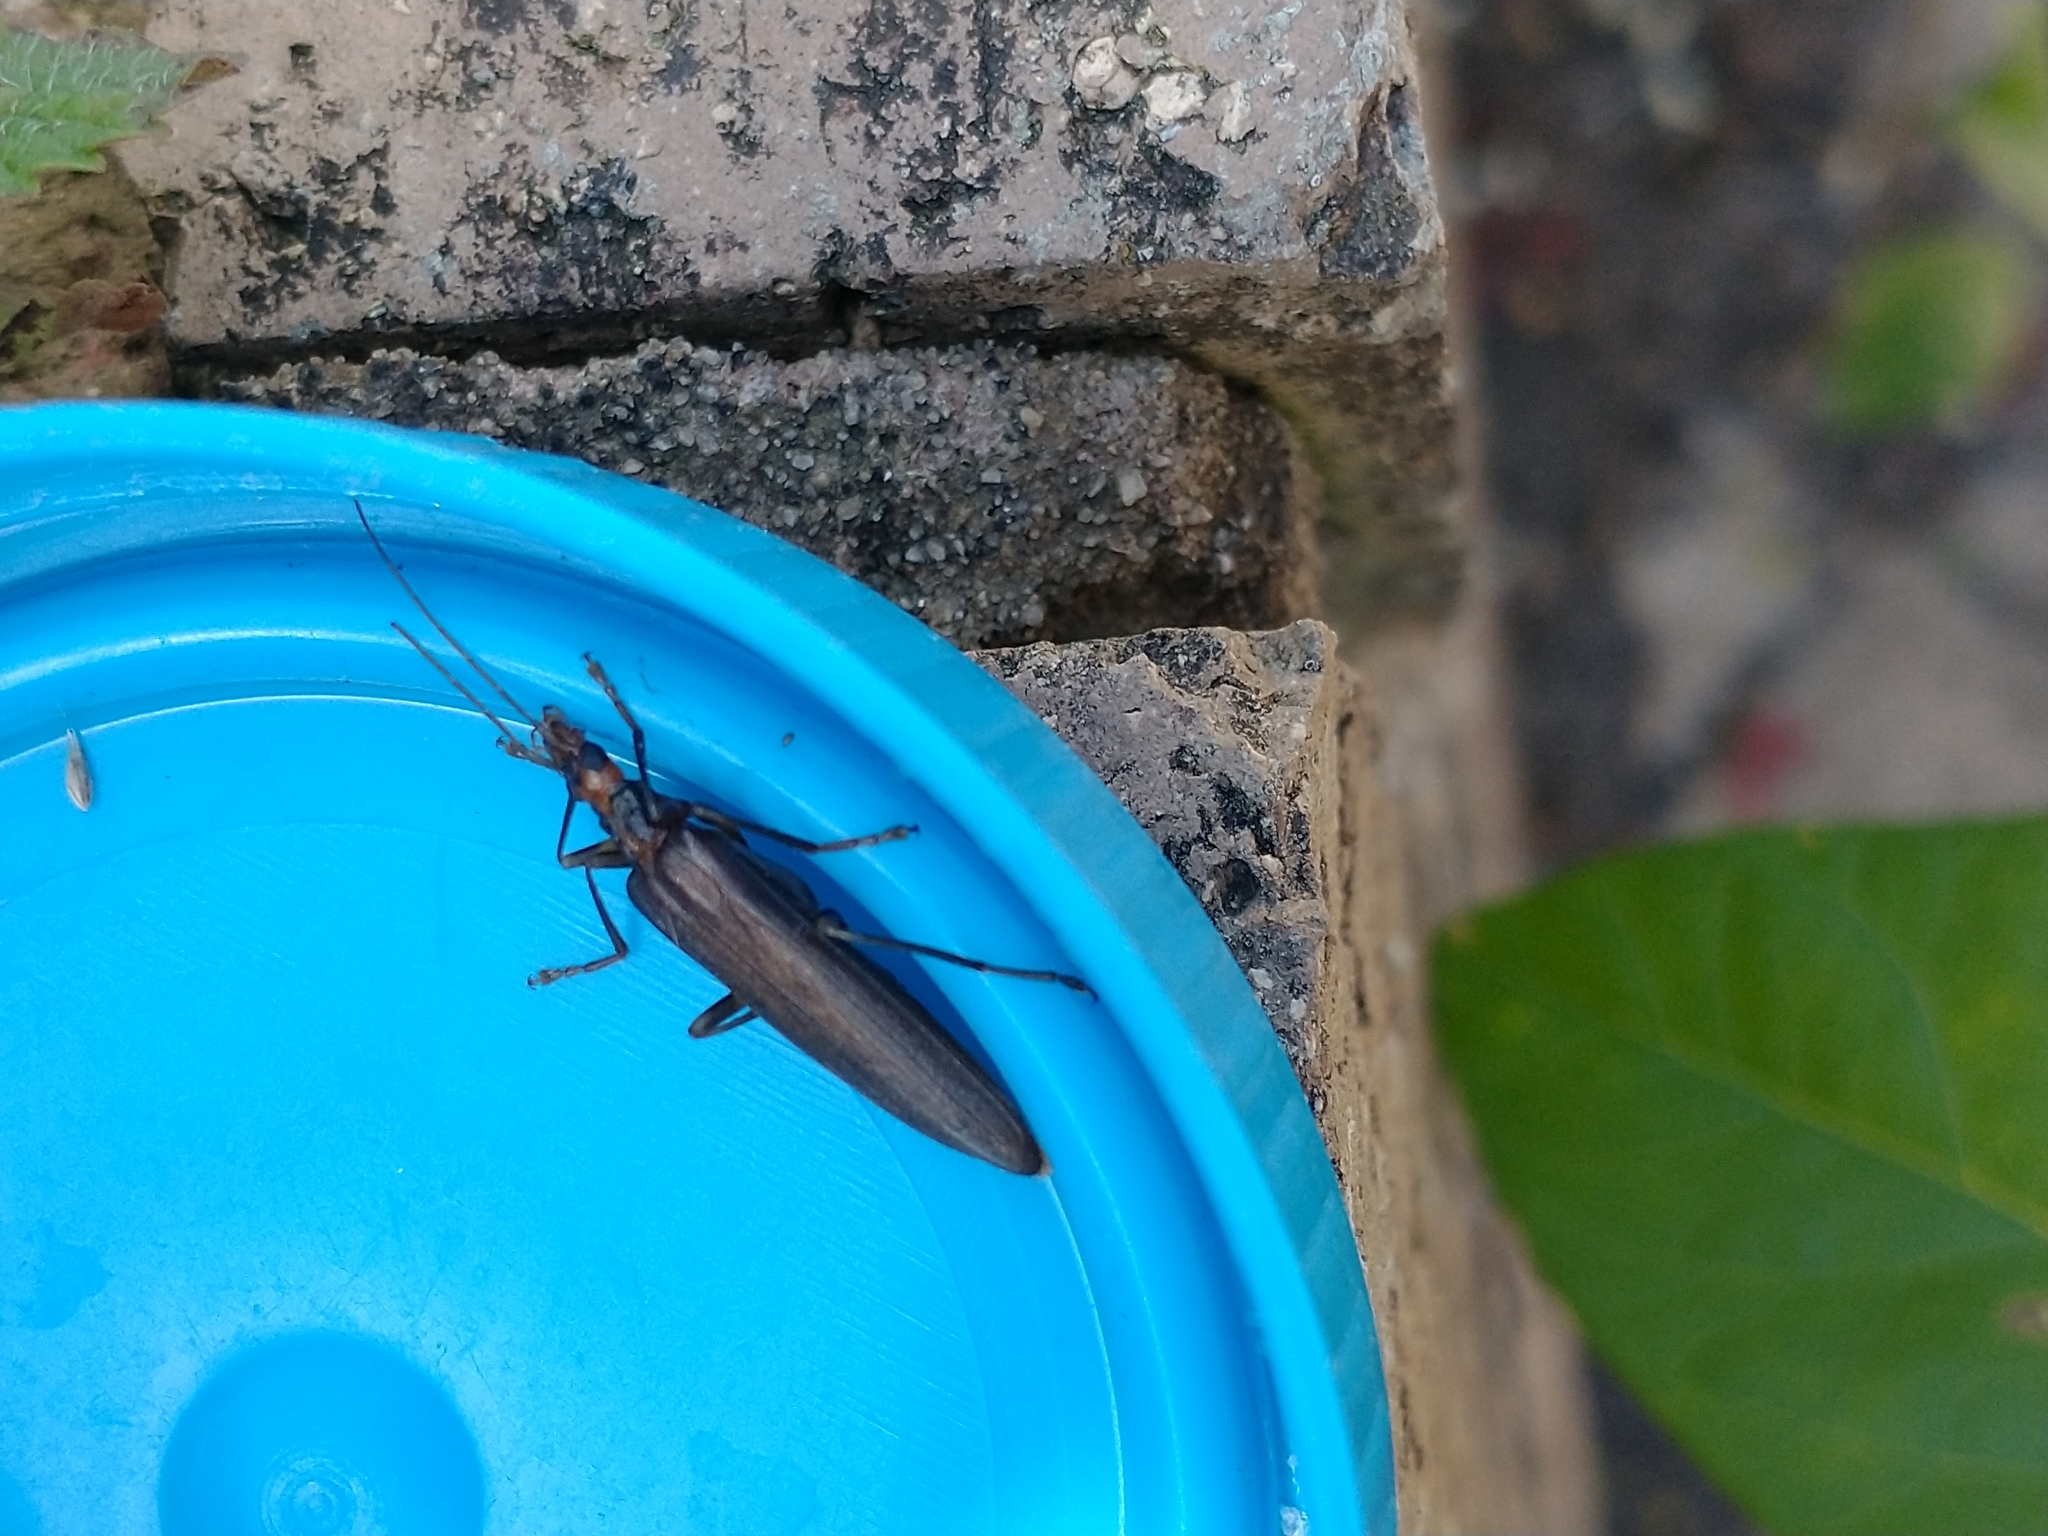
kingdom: Animalia
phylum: Arthropoda
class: Insecta
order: Coleoptera
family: Oedemeridae
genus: Oedemera
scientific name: Oedemera femoralis
